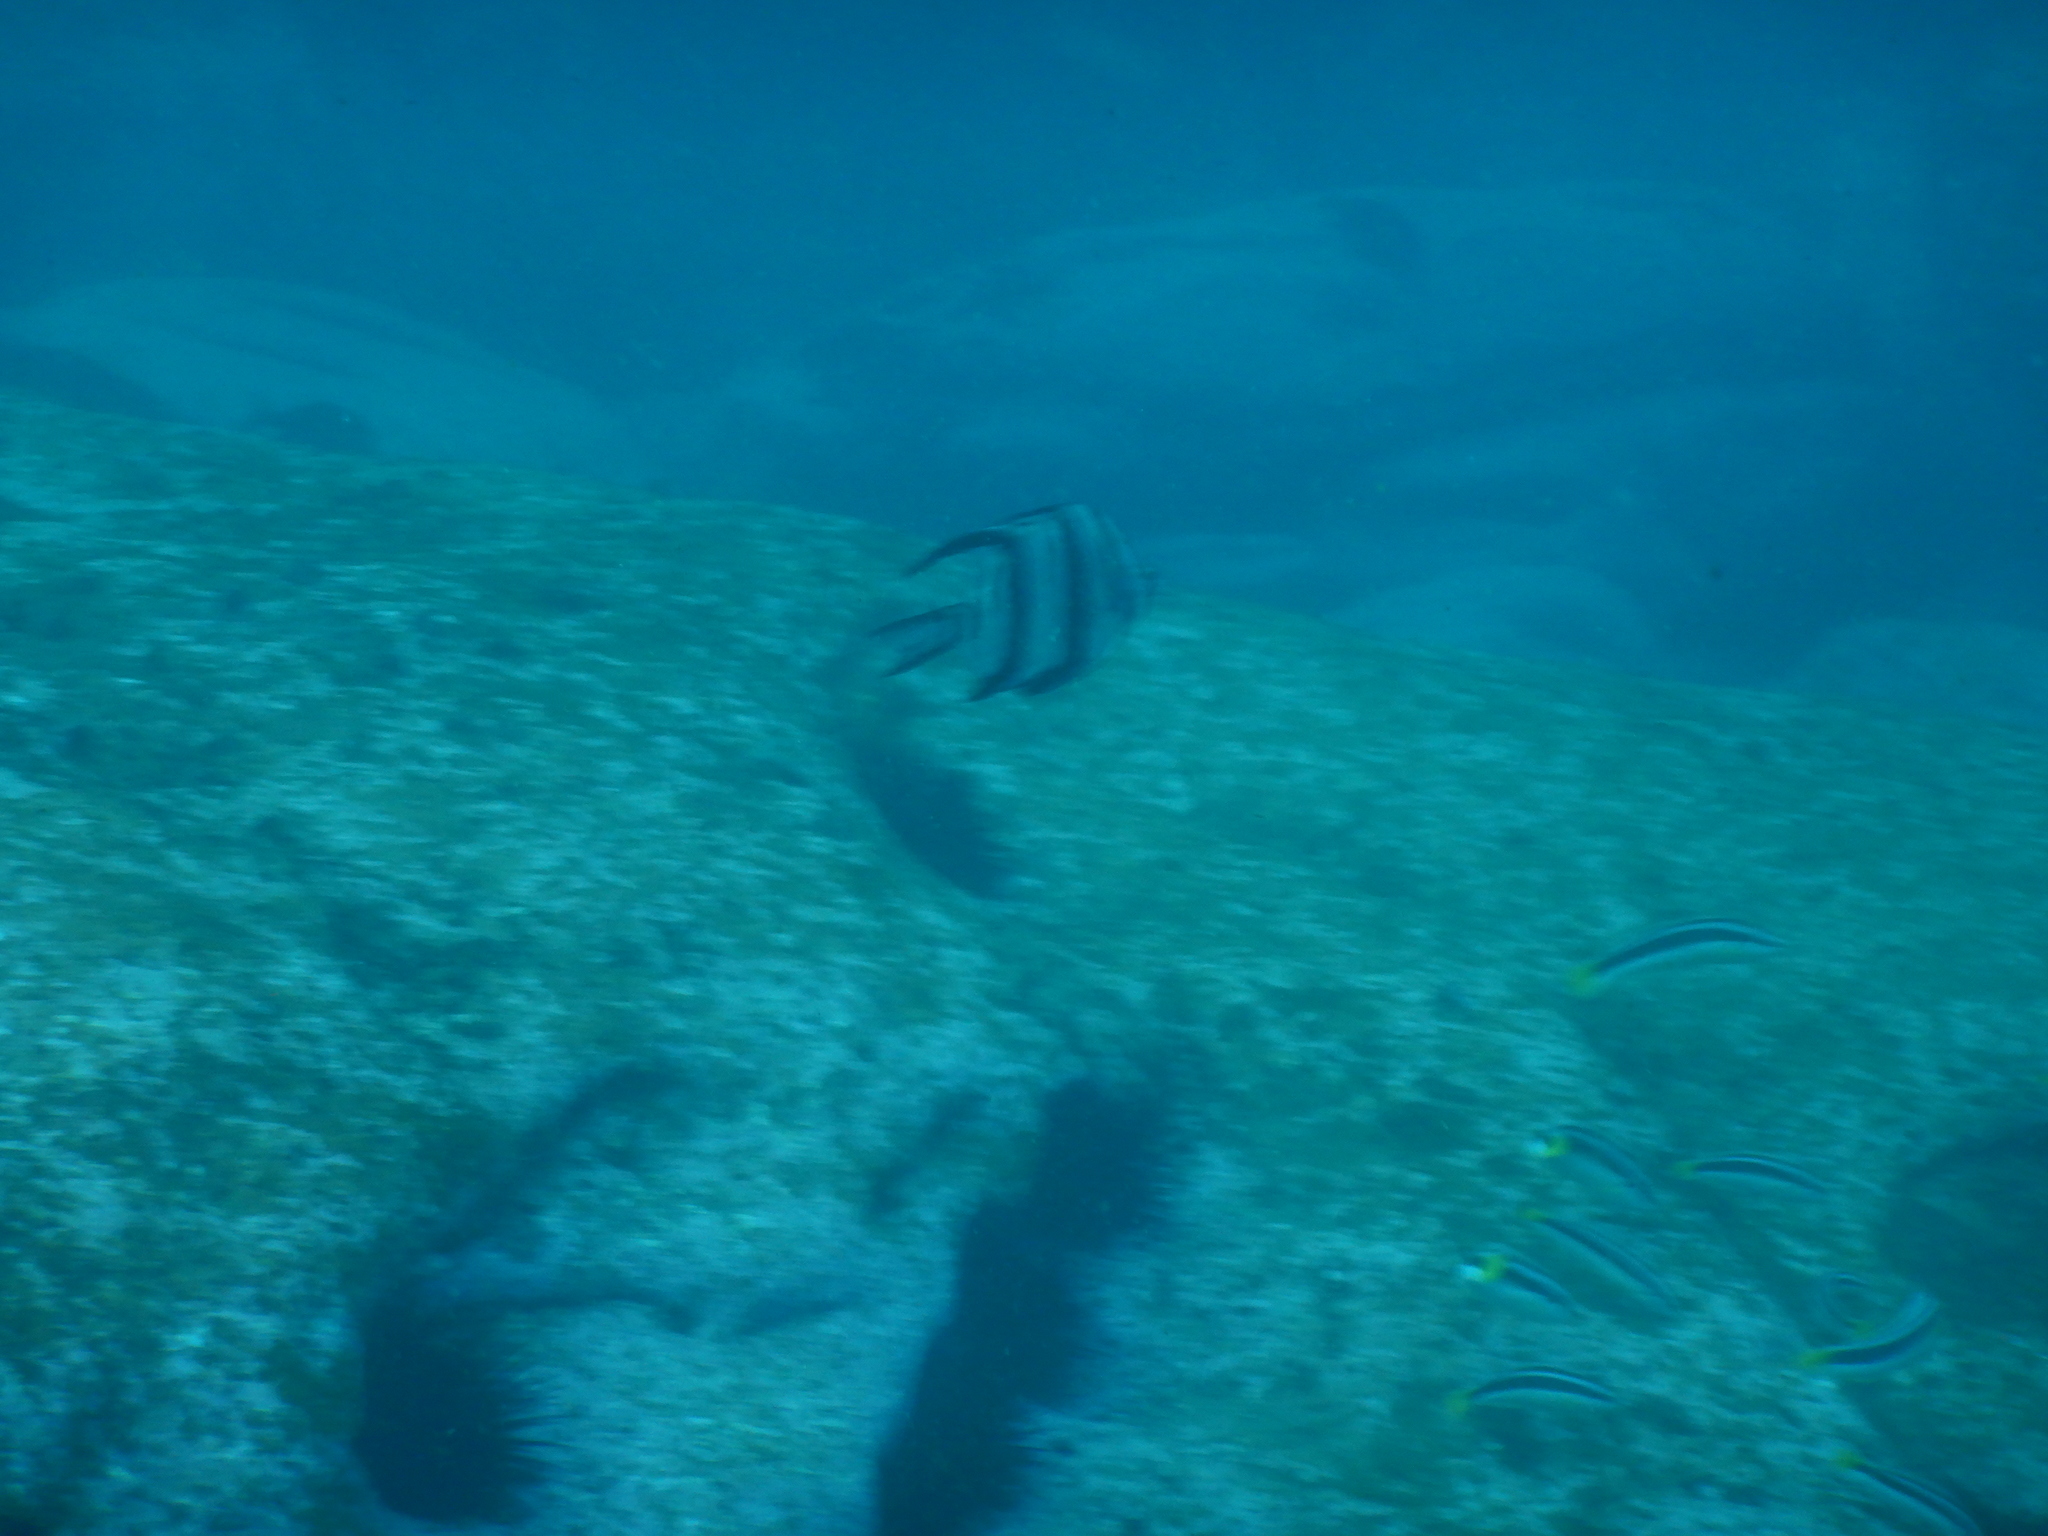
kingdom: Animalia
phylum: Chordata
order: Perciformes
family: Enoplosidae
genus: Enoplosus
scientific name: Enoplosus armatus
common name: Old wife
